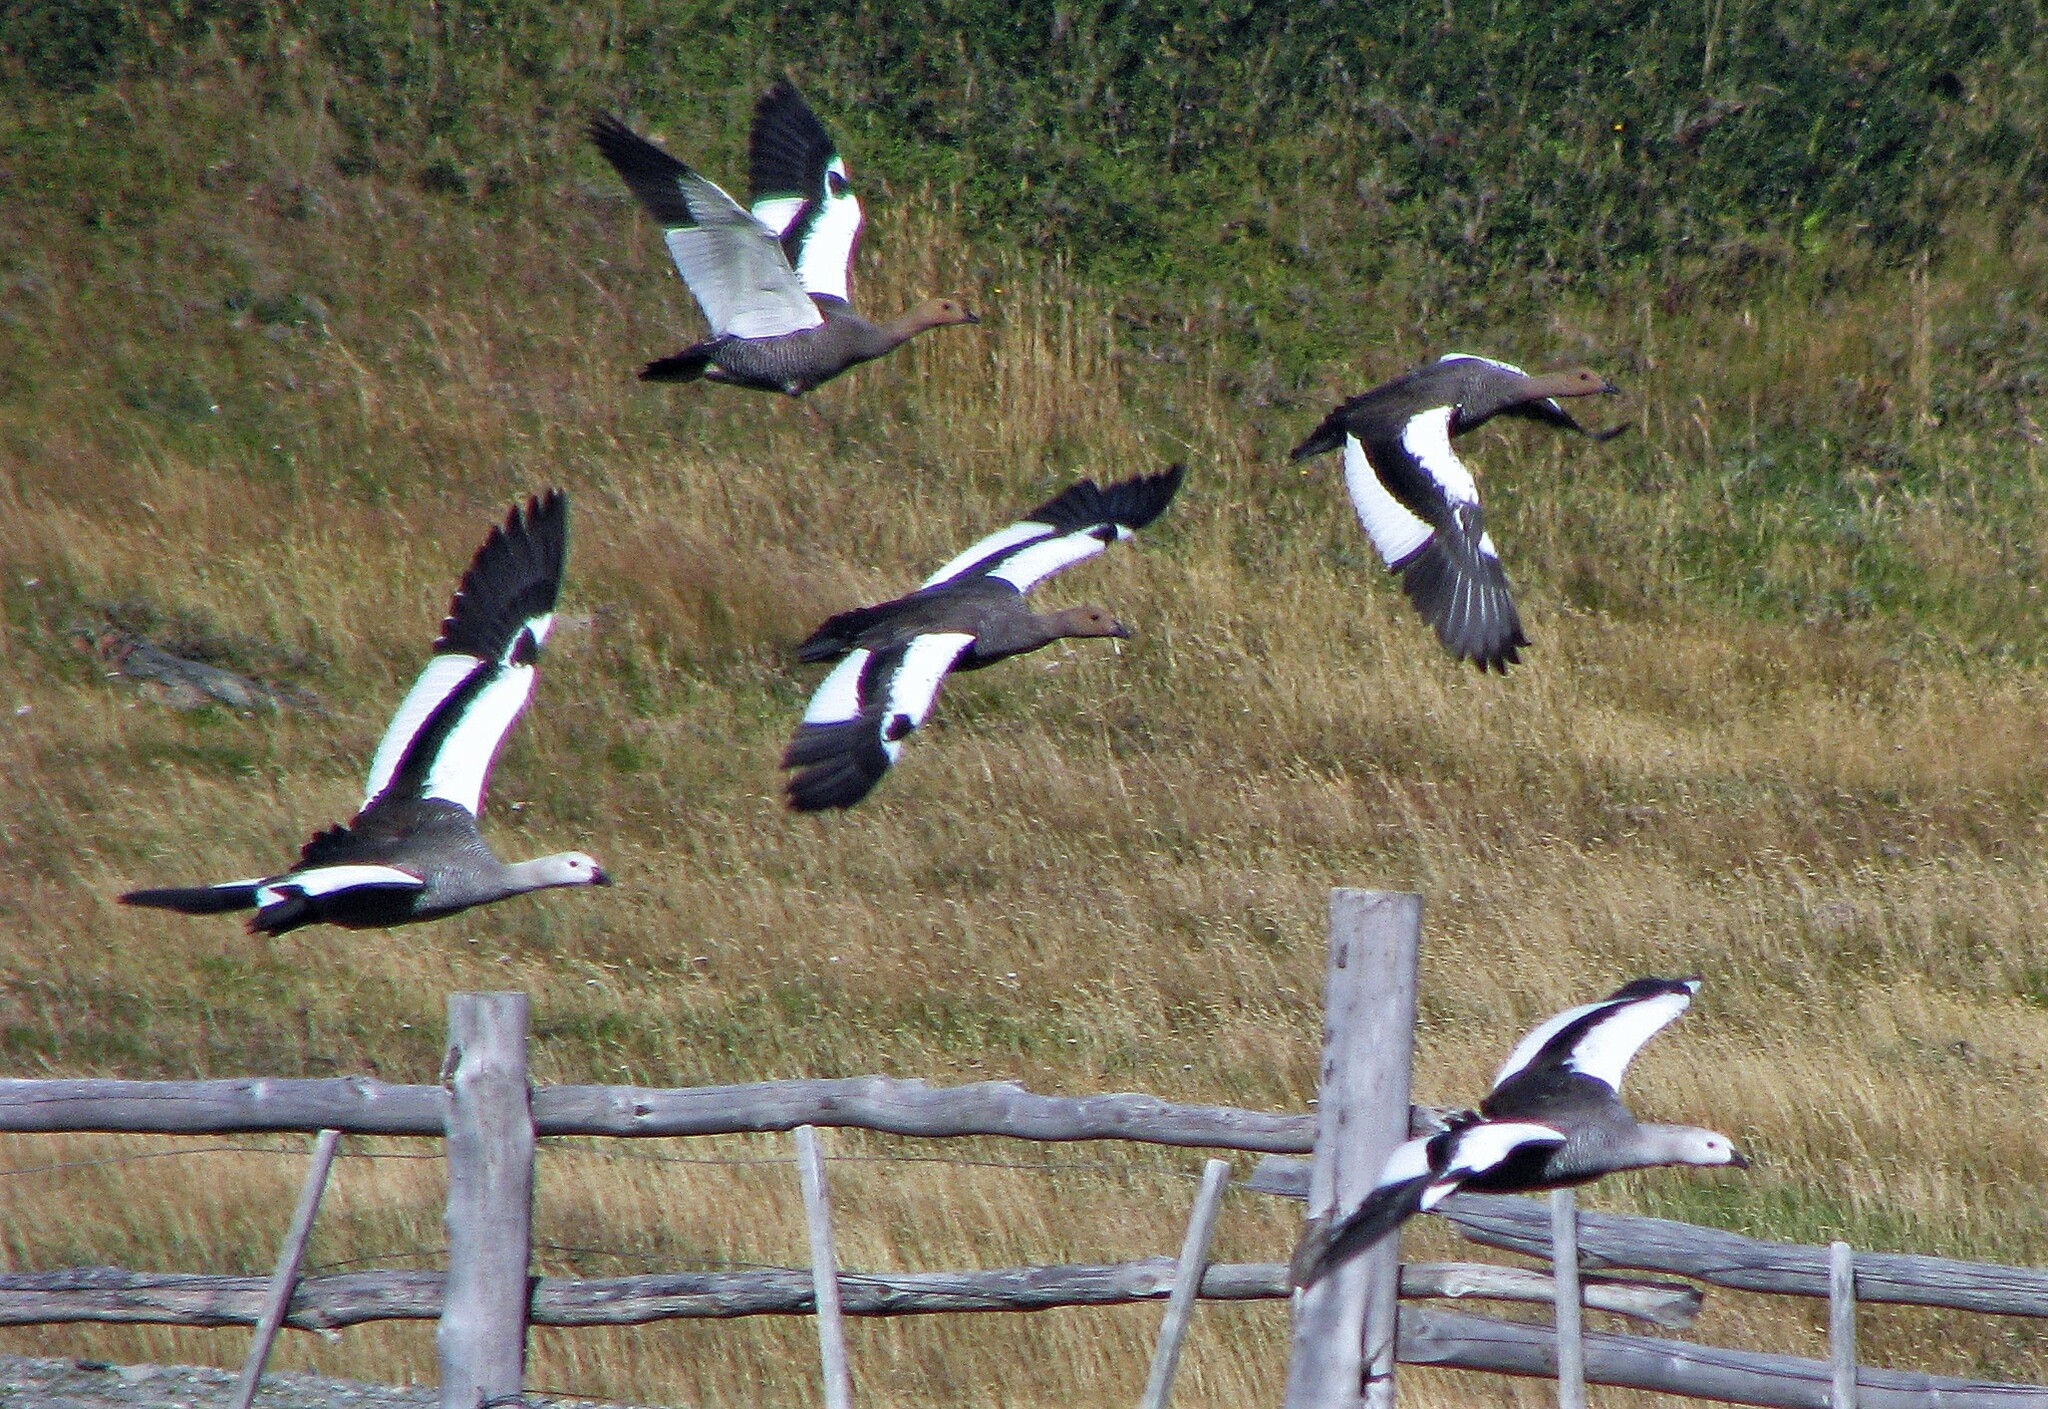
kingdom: Animalia
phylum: Chordata
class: Aves
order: Anseriformes
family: Anatidae
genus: Chloephaga
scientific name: Chloephaga picta
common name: Upland goose
